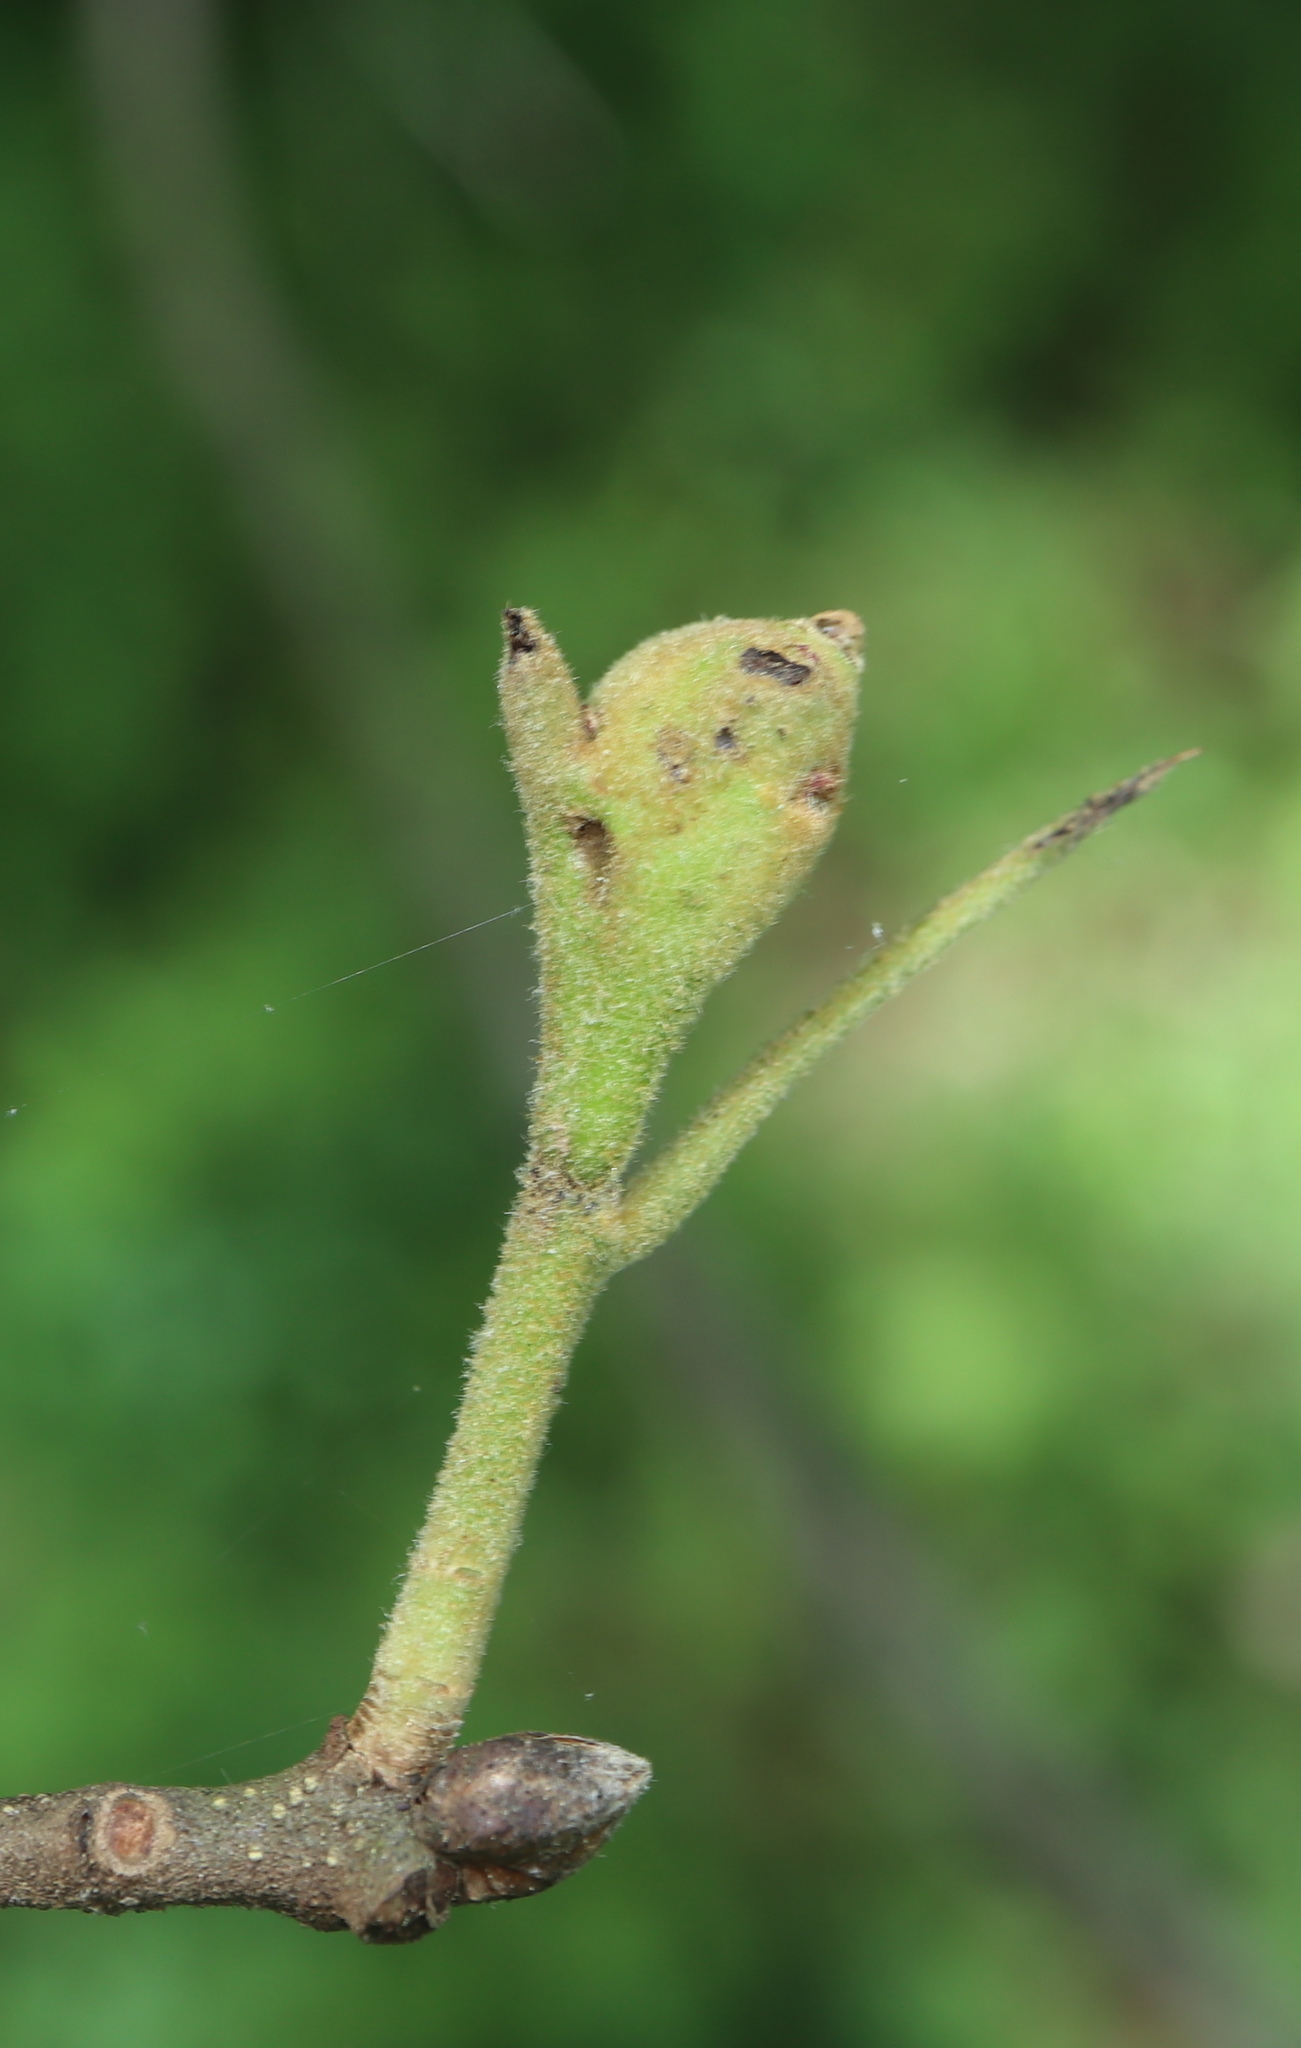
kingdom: Animalia
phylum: Arthropoda
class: Insecta
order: Hymenoptera
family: Cynipidae
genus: Zapatella
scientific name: Zapatella quercusphellos
